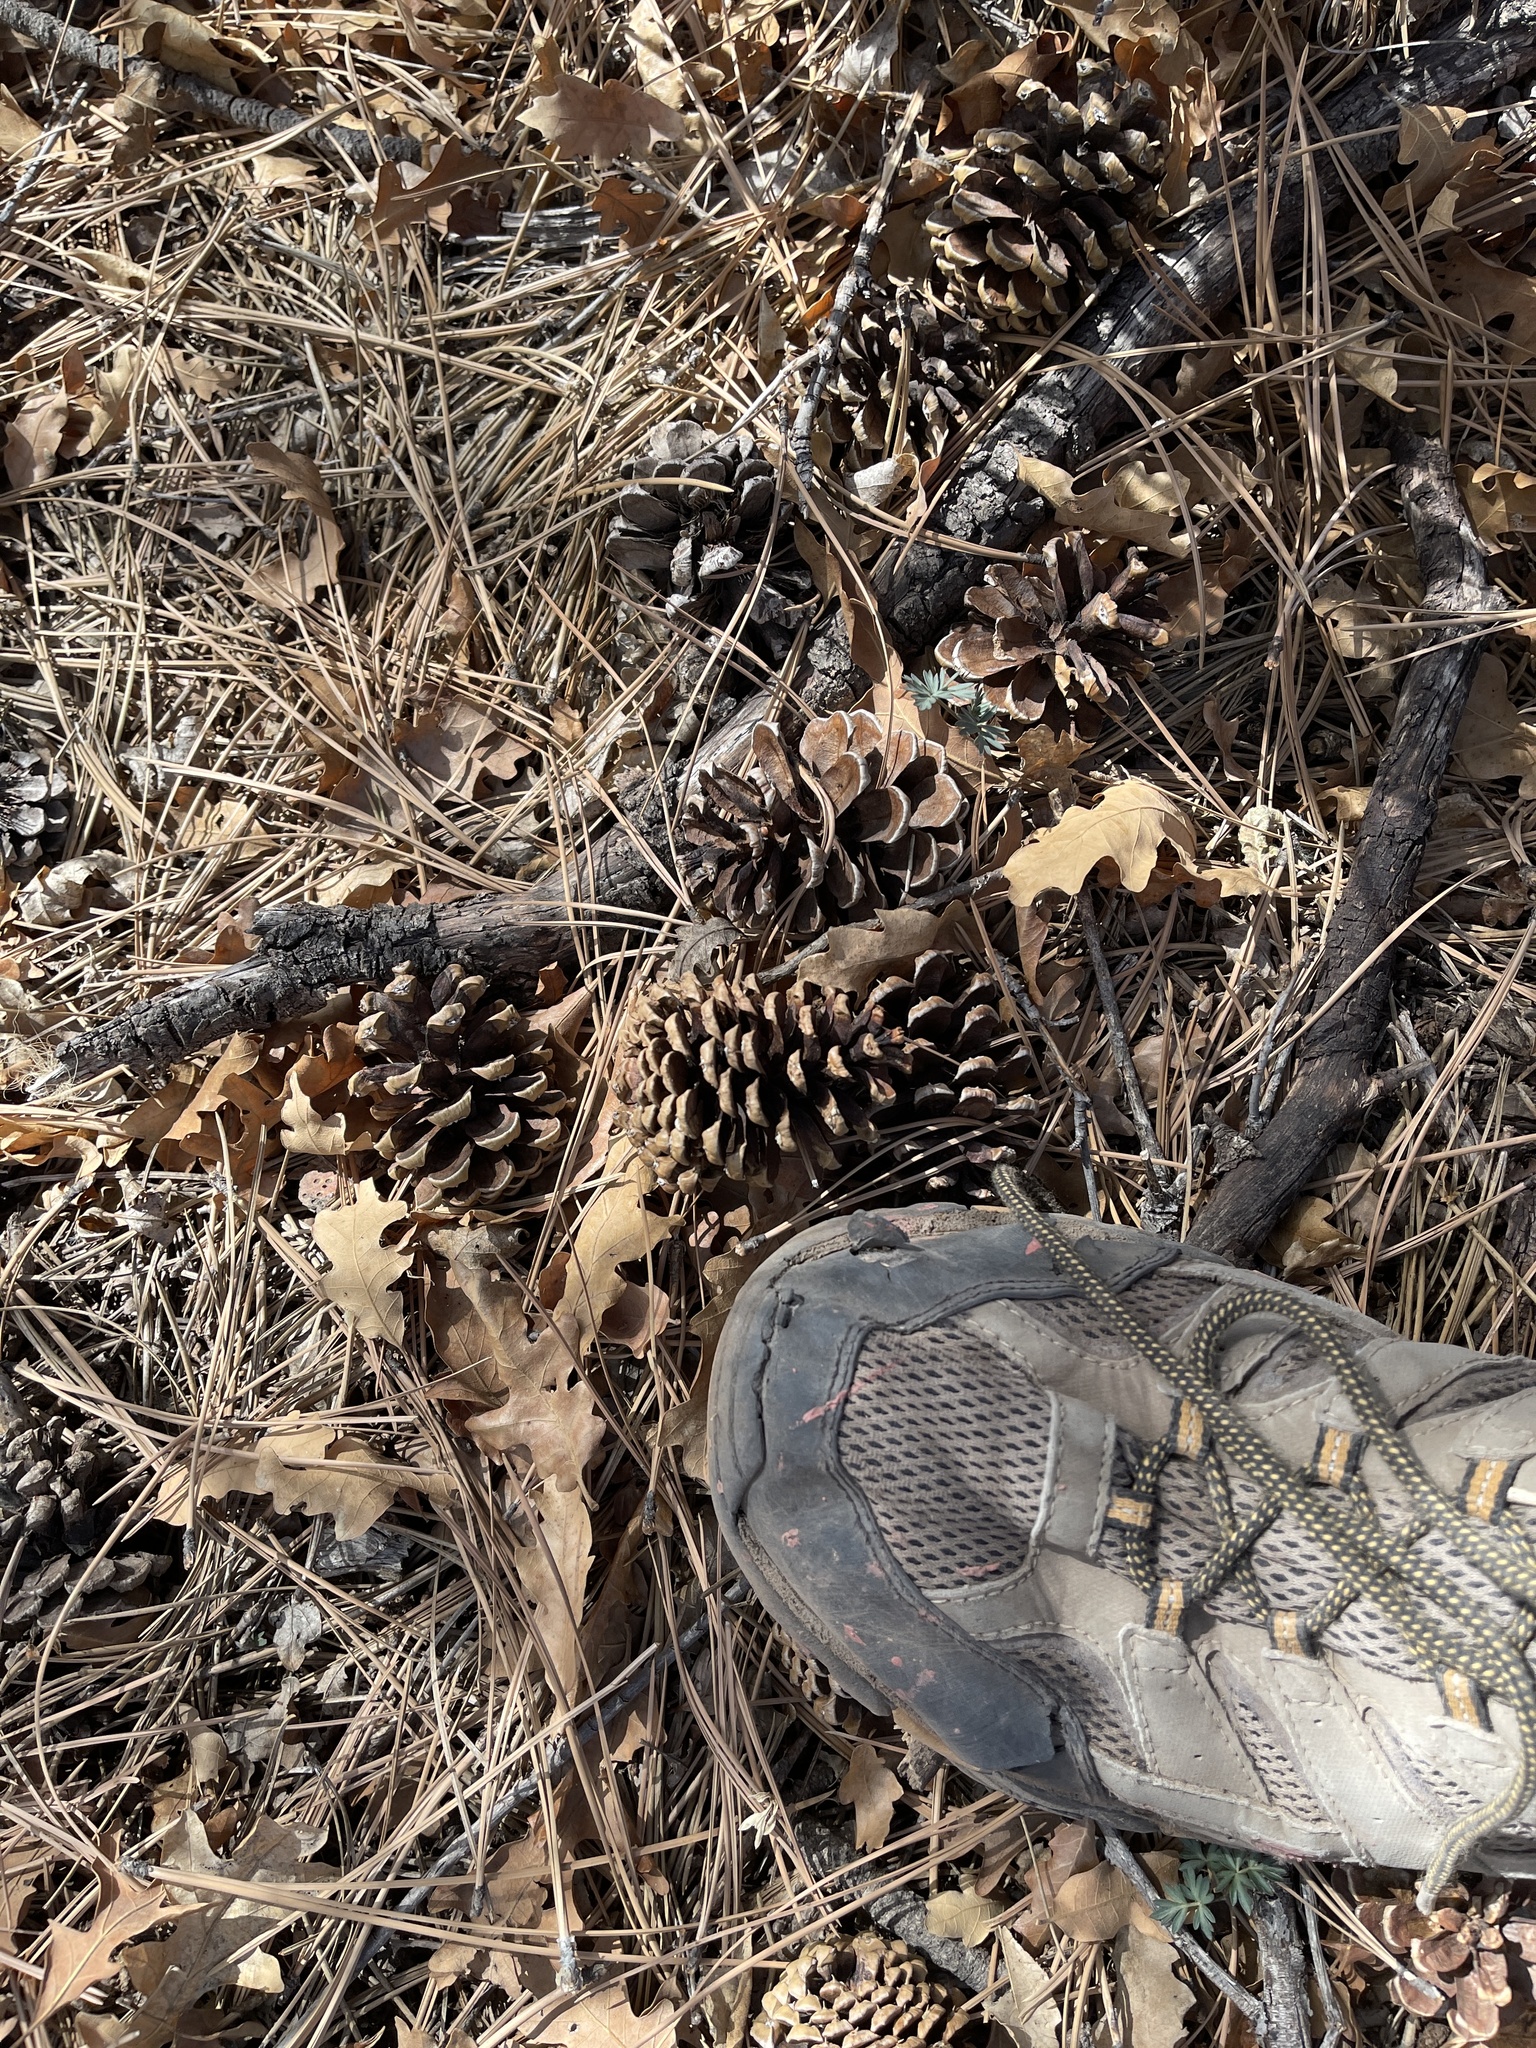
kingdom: Plantae
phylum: Tracheophyta
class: Pinopsida
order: Pinales
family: Pinaceae
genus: Pinus
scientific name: Pinus ponderosa
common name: Western yellow-pine
